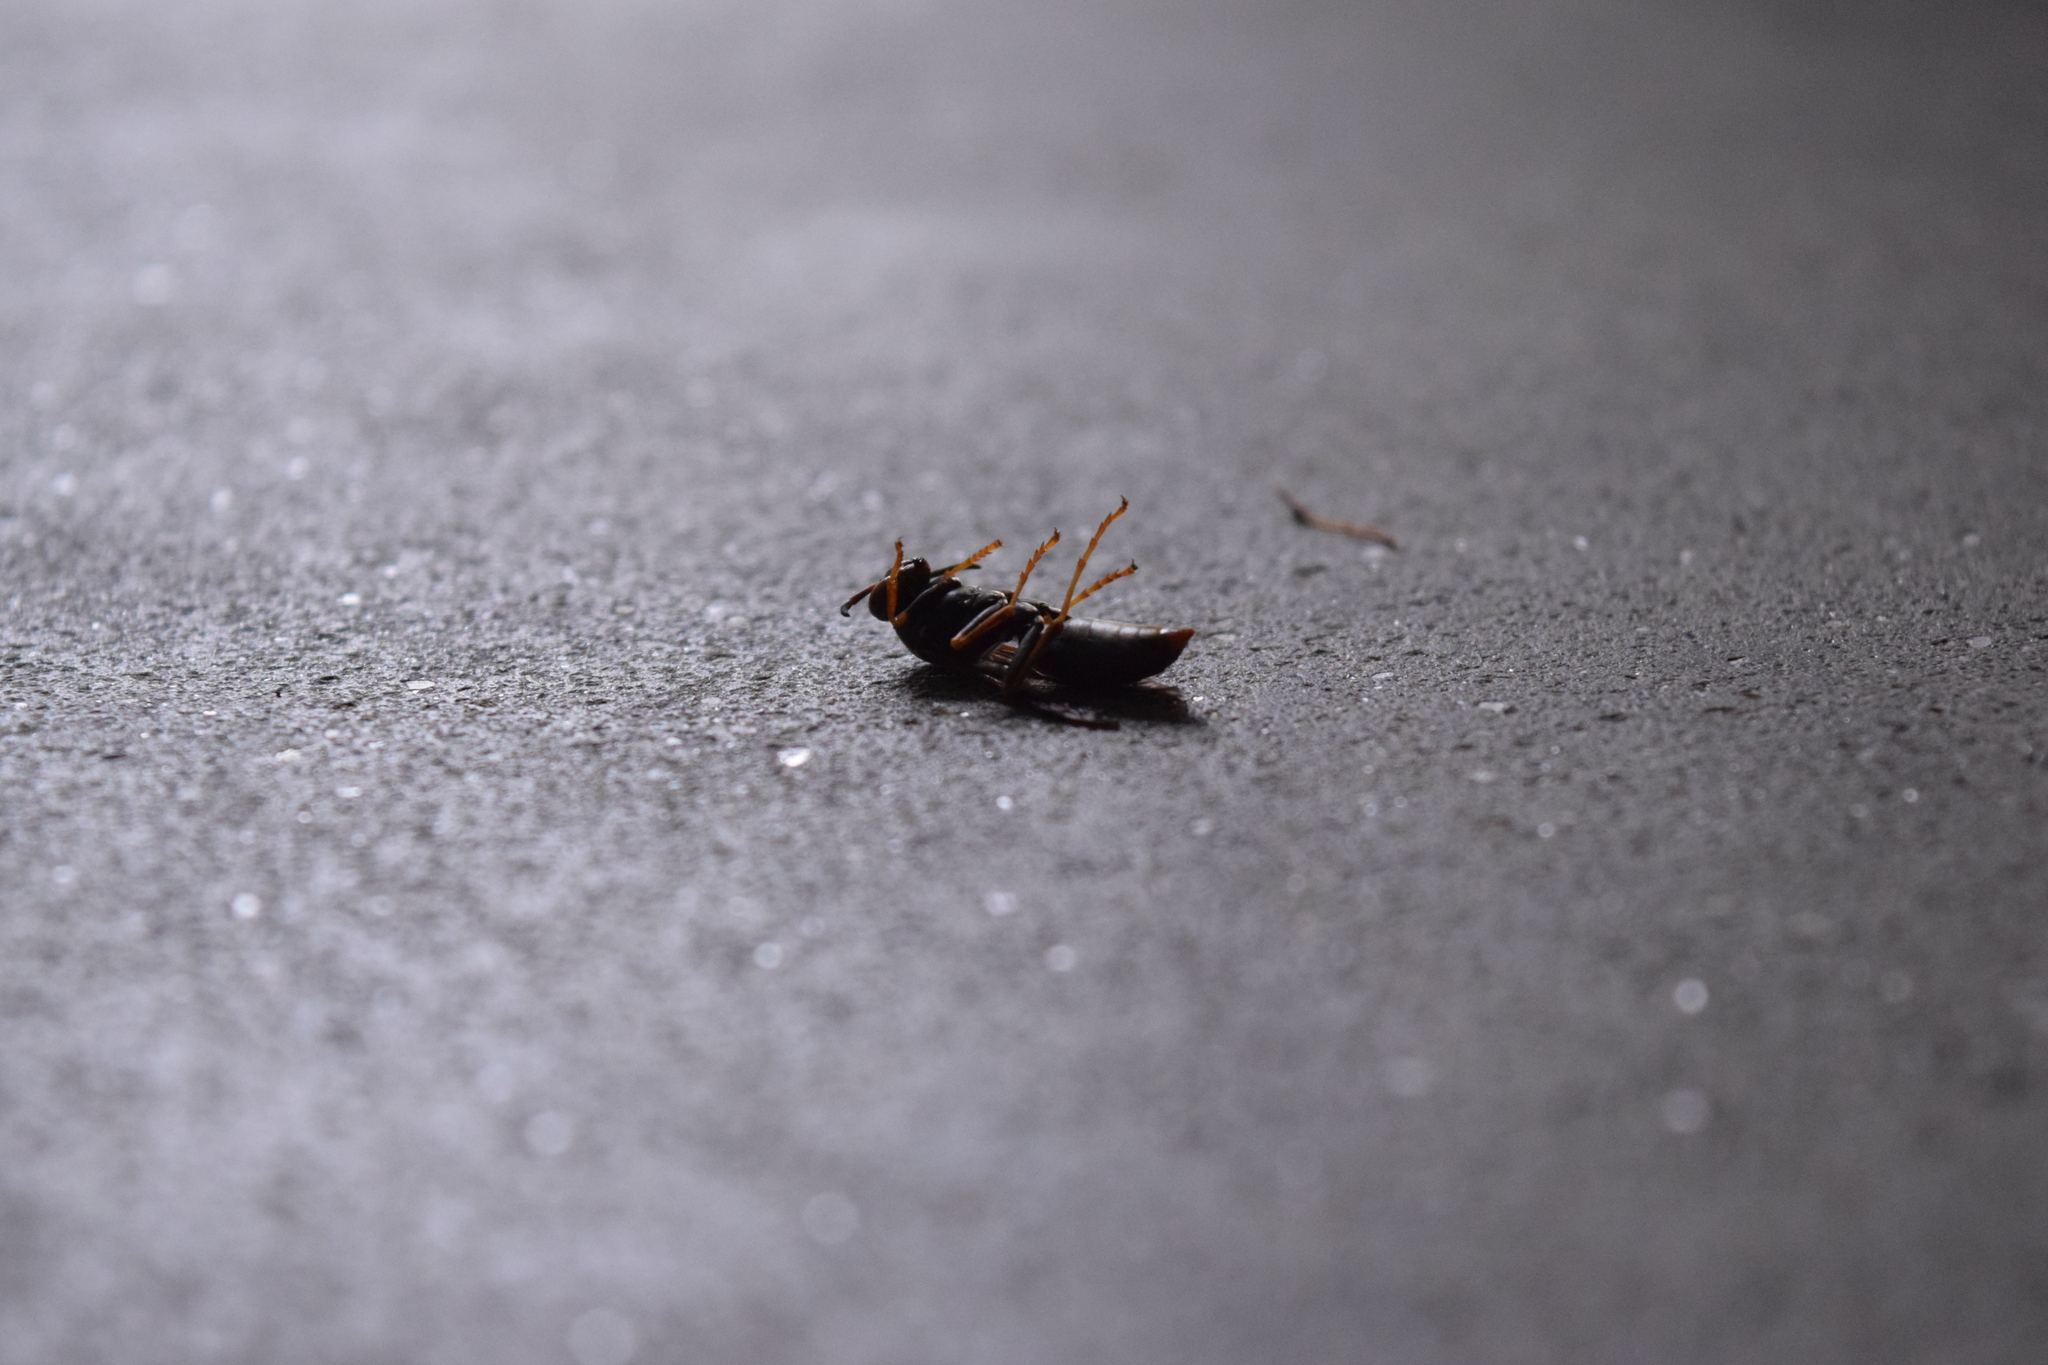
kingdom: Animalia
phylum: Arthropoda
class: Insecta
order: Hymenoptera
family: Eumenidae
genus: Polistes
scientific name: Polistes fuscatus
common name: Dark paper wasp
